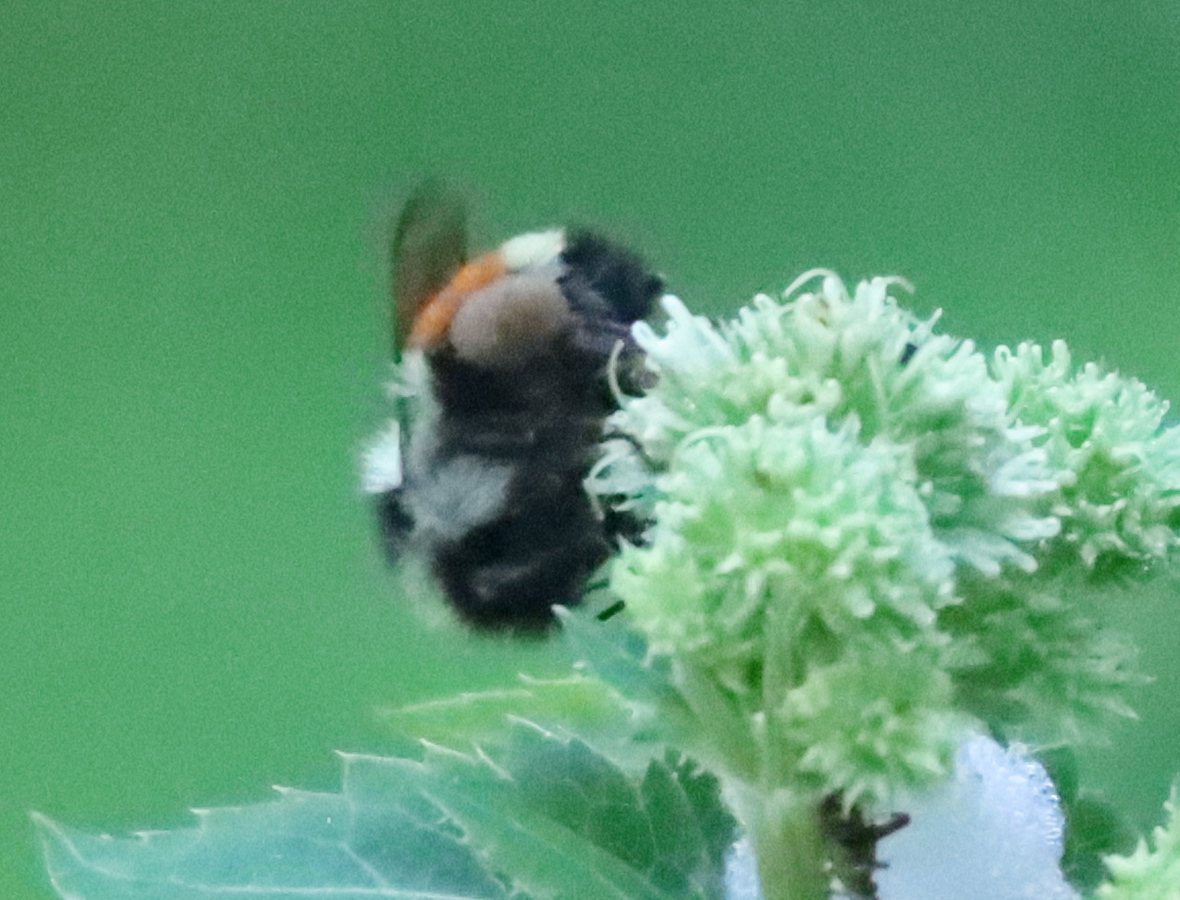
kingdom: Animalia
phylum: Arthropoda
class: Insecta
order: Hymenoptera
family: Apidae
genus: Bombus
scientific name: Bombus ternarius
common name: Tri-colored bumble bee
